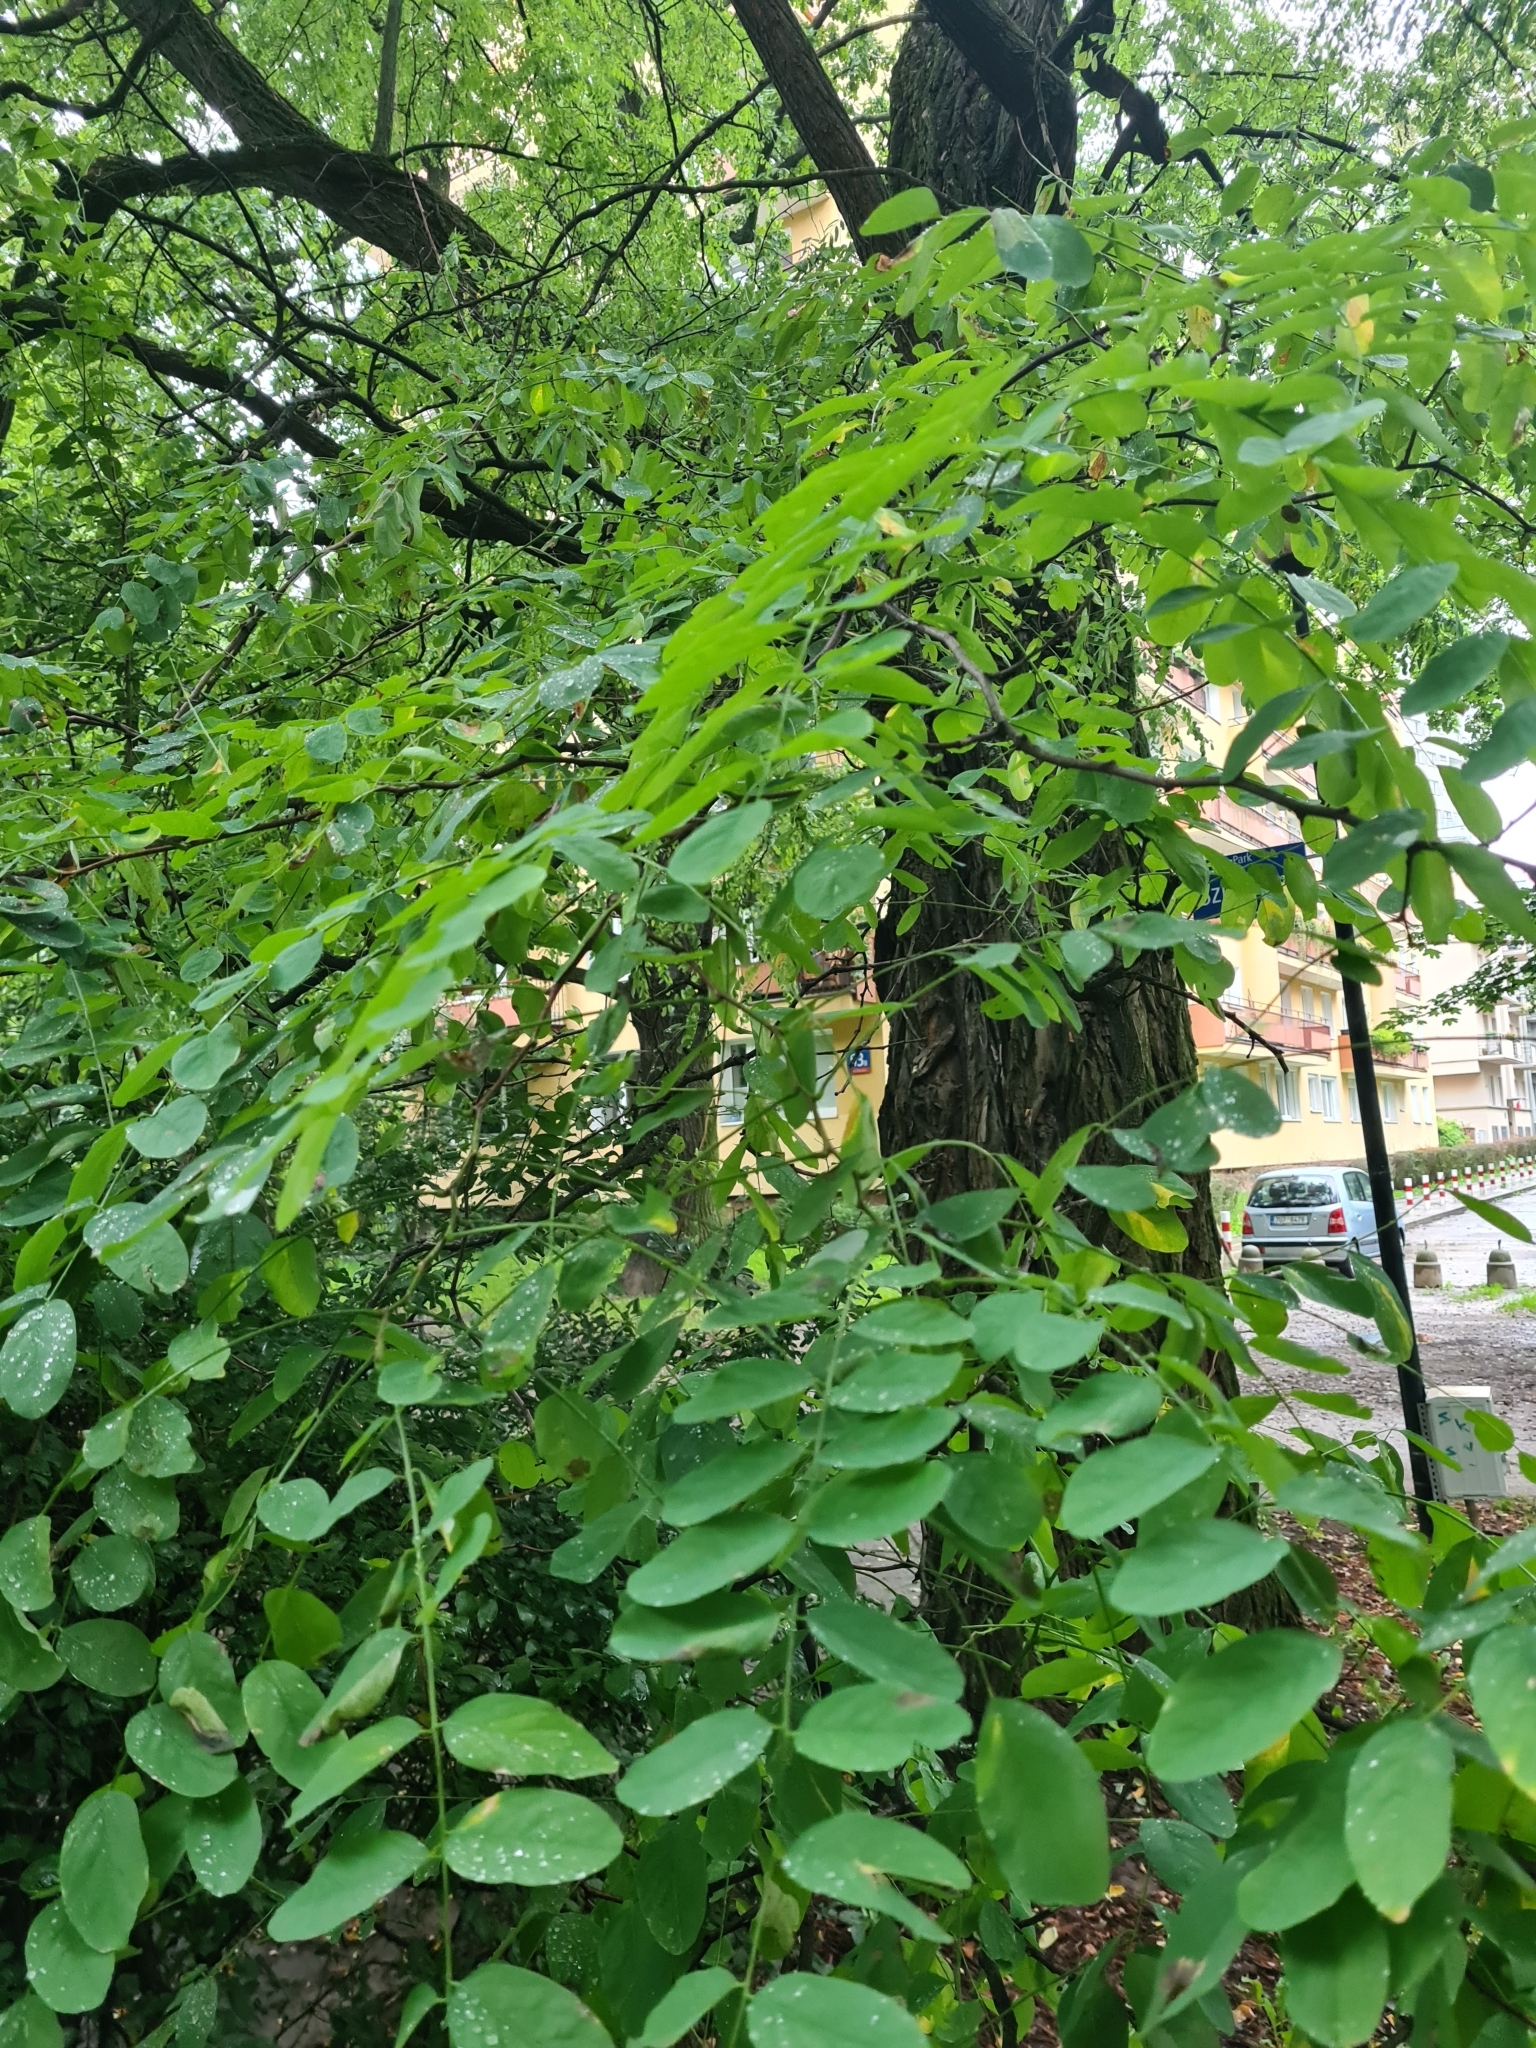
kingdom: Plantae
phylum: Tracheophyta
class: Magnoliopsida
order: Fabales
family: Fabaceae
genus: Robinia
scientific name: Robinia pseudoacacia
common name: Black locust
